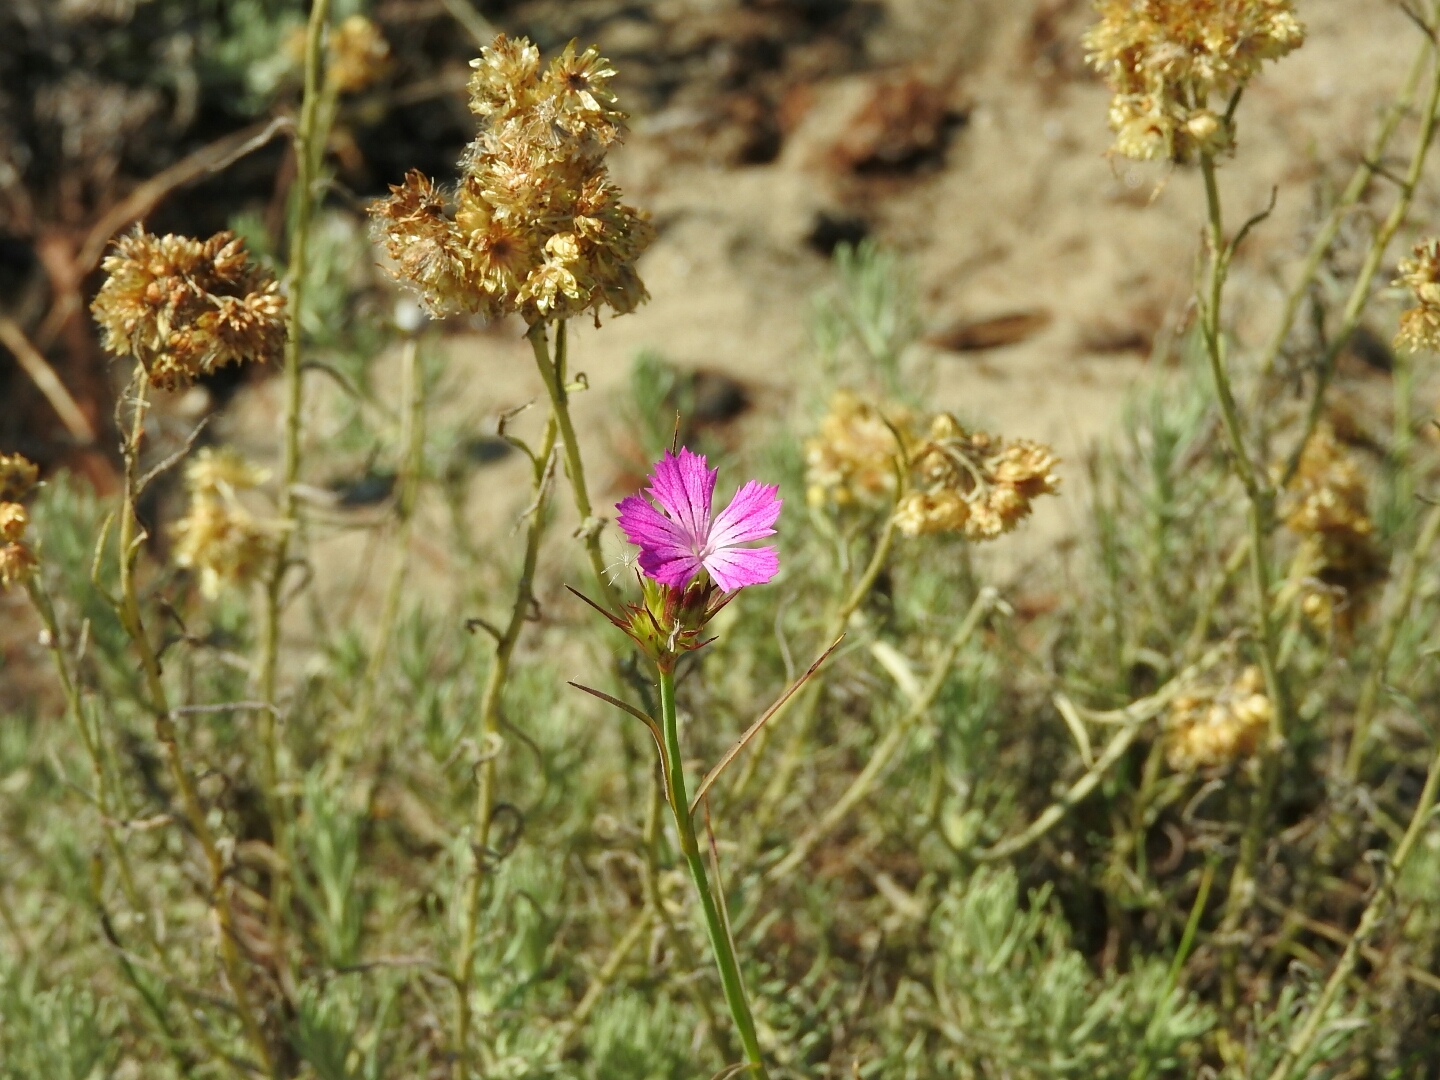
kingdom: Plantae
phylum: Tracheophyta
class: Magnoliopsida
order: Caryophyllales
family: Caryophyllaceae
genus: Dianthus
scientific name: Dianthus balbisii
